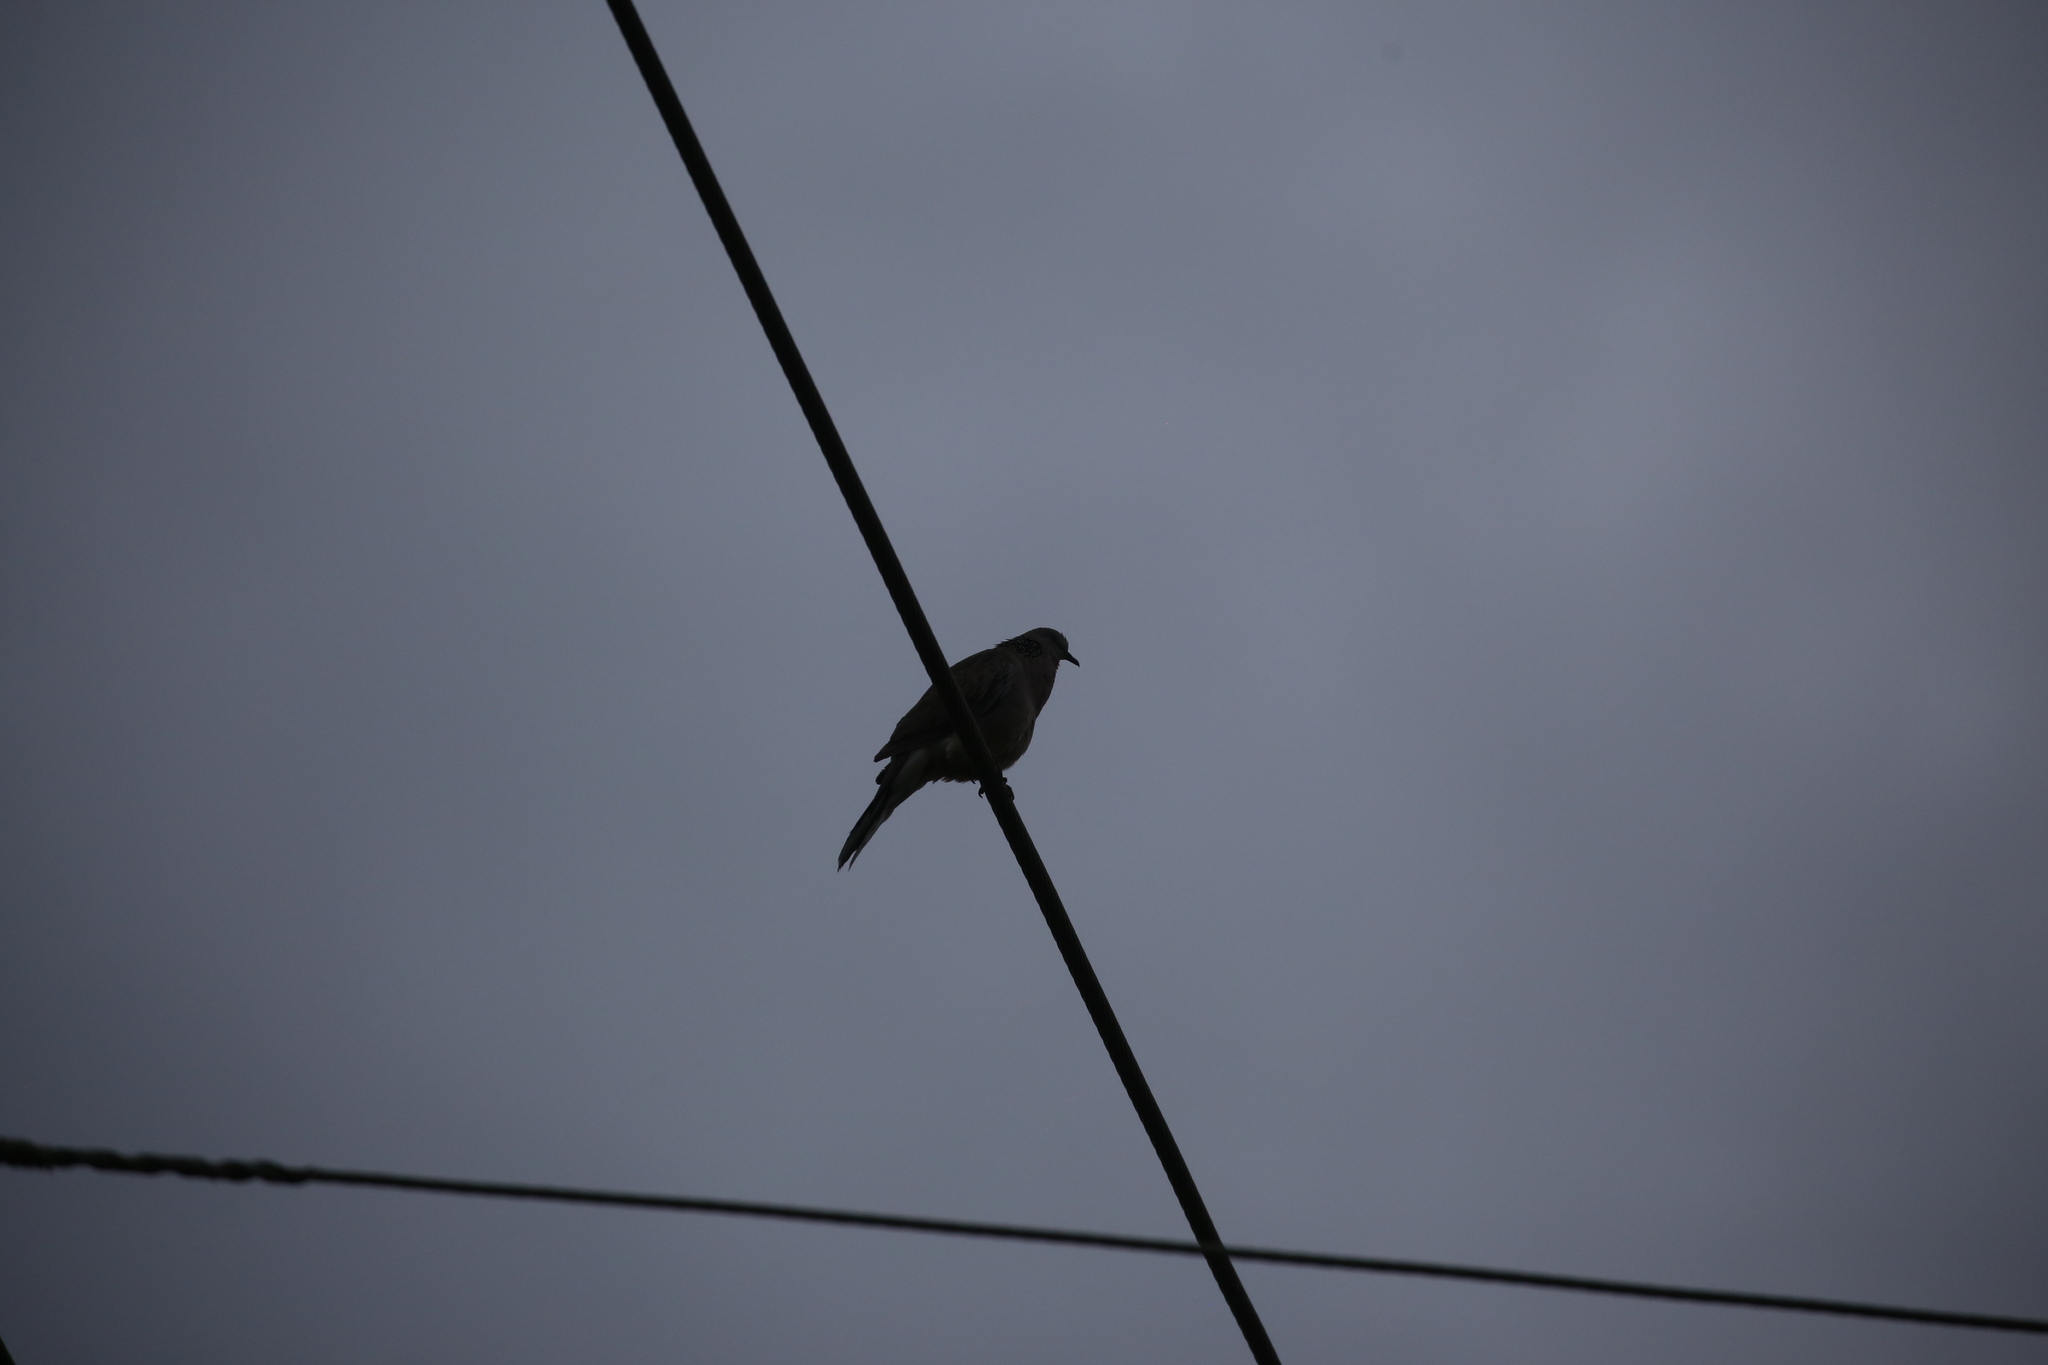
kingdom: Animalia
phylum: Chordata
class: Aves
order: Columbiformes
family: Columbidae
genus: Spilopelia
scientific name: Spilopelia chinensis
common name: Spotted dove
